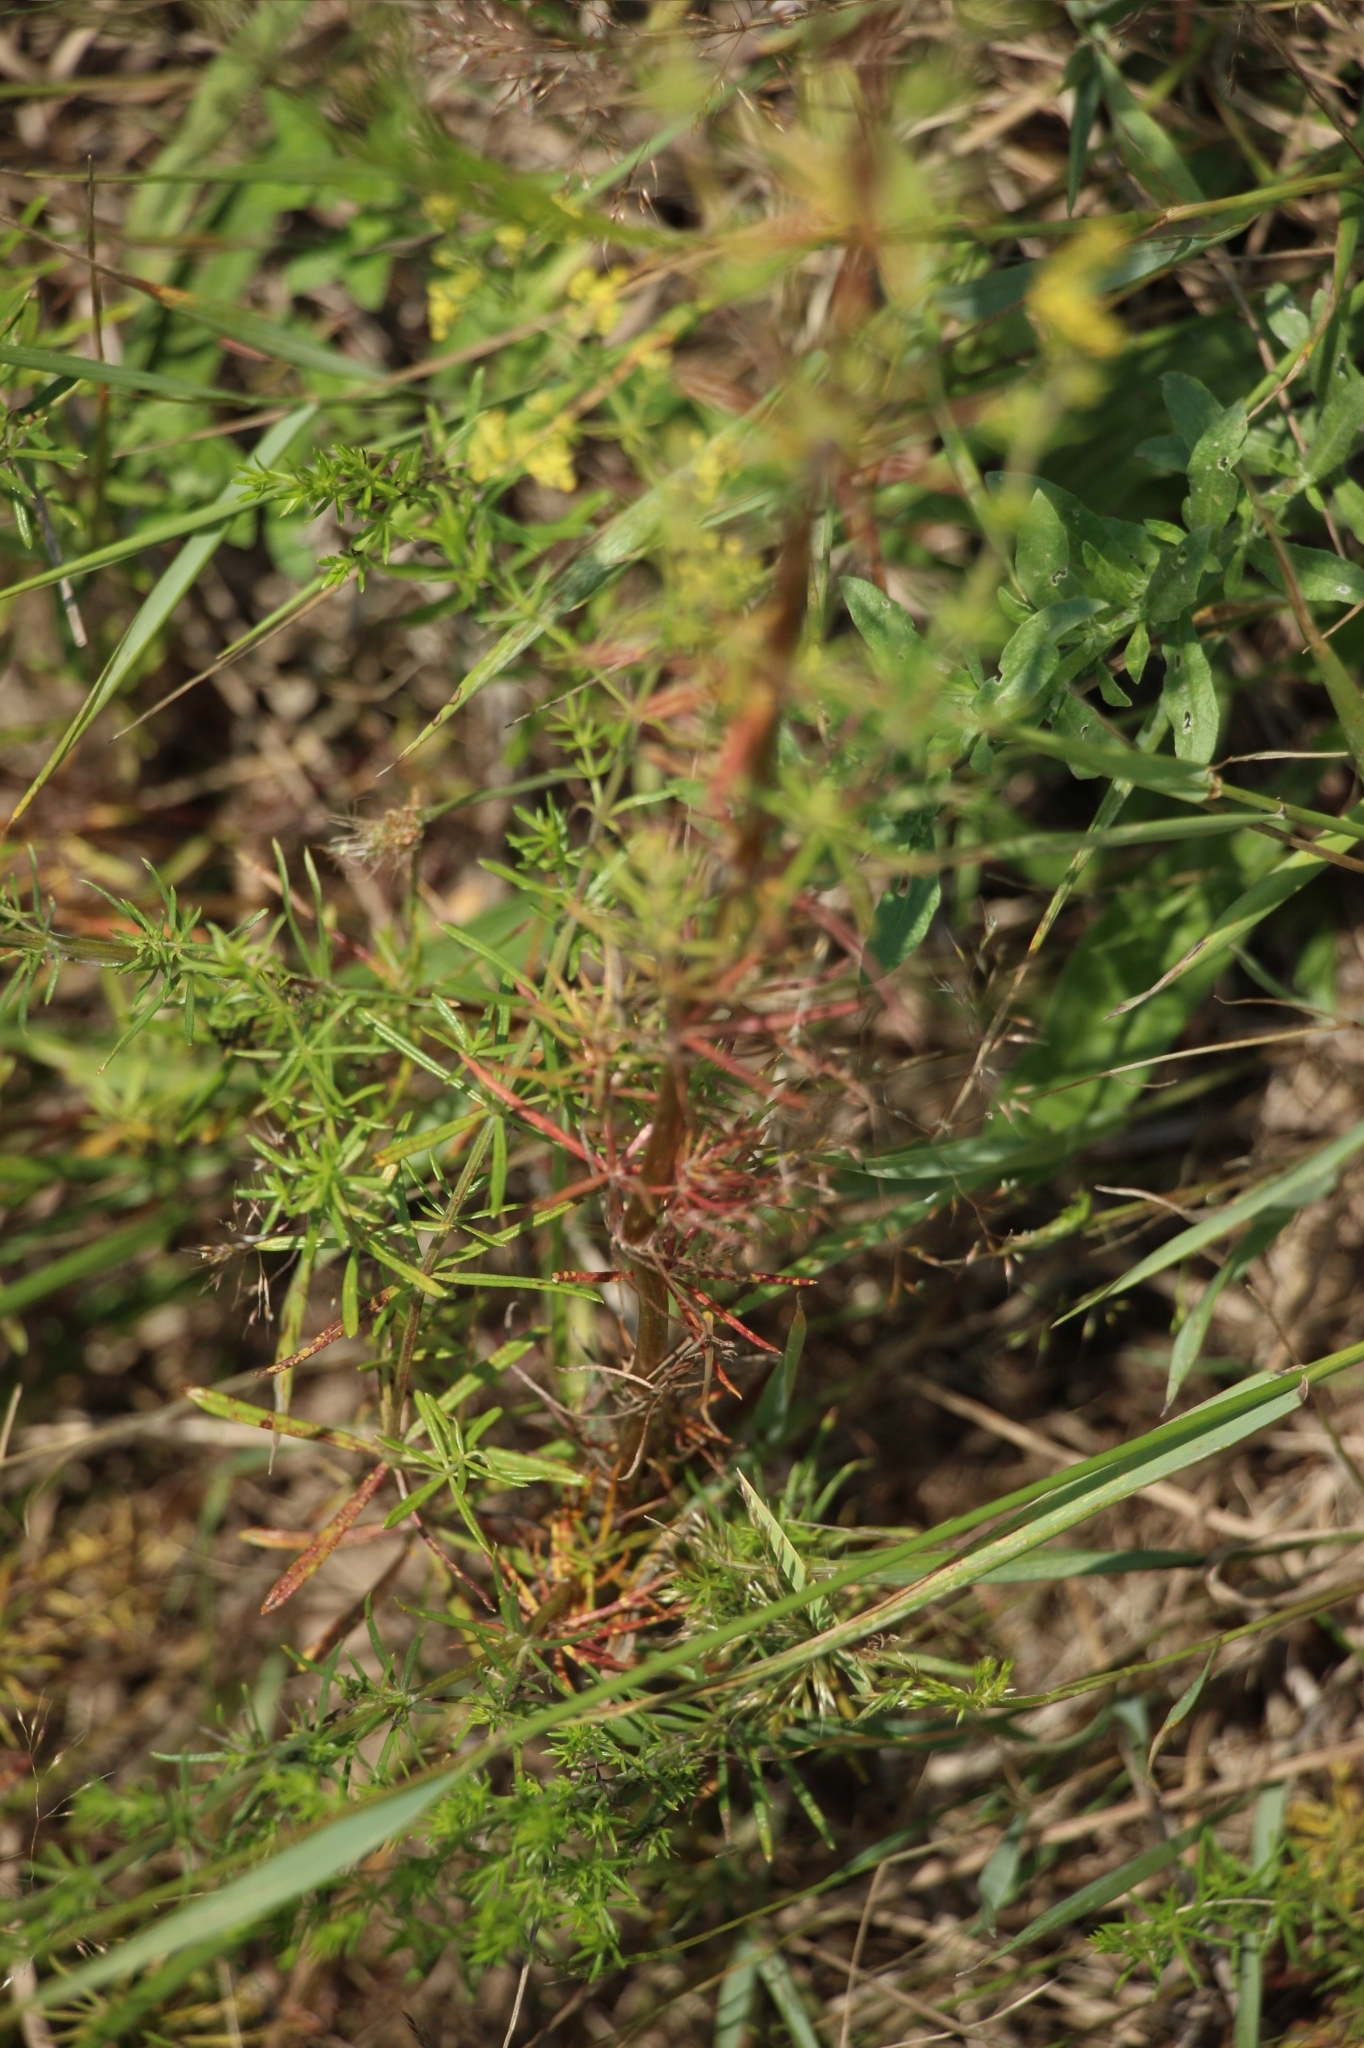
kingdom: Plantae
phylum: Tracheophyta
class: Magnoliopsida
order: Gentianales
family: Rubiaceae
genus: Galium
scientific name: Galium verum
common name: Lady's bedstraw
